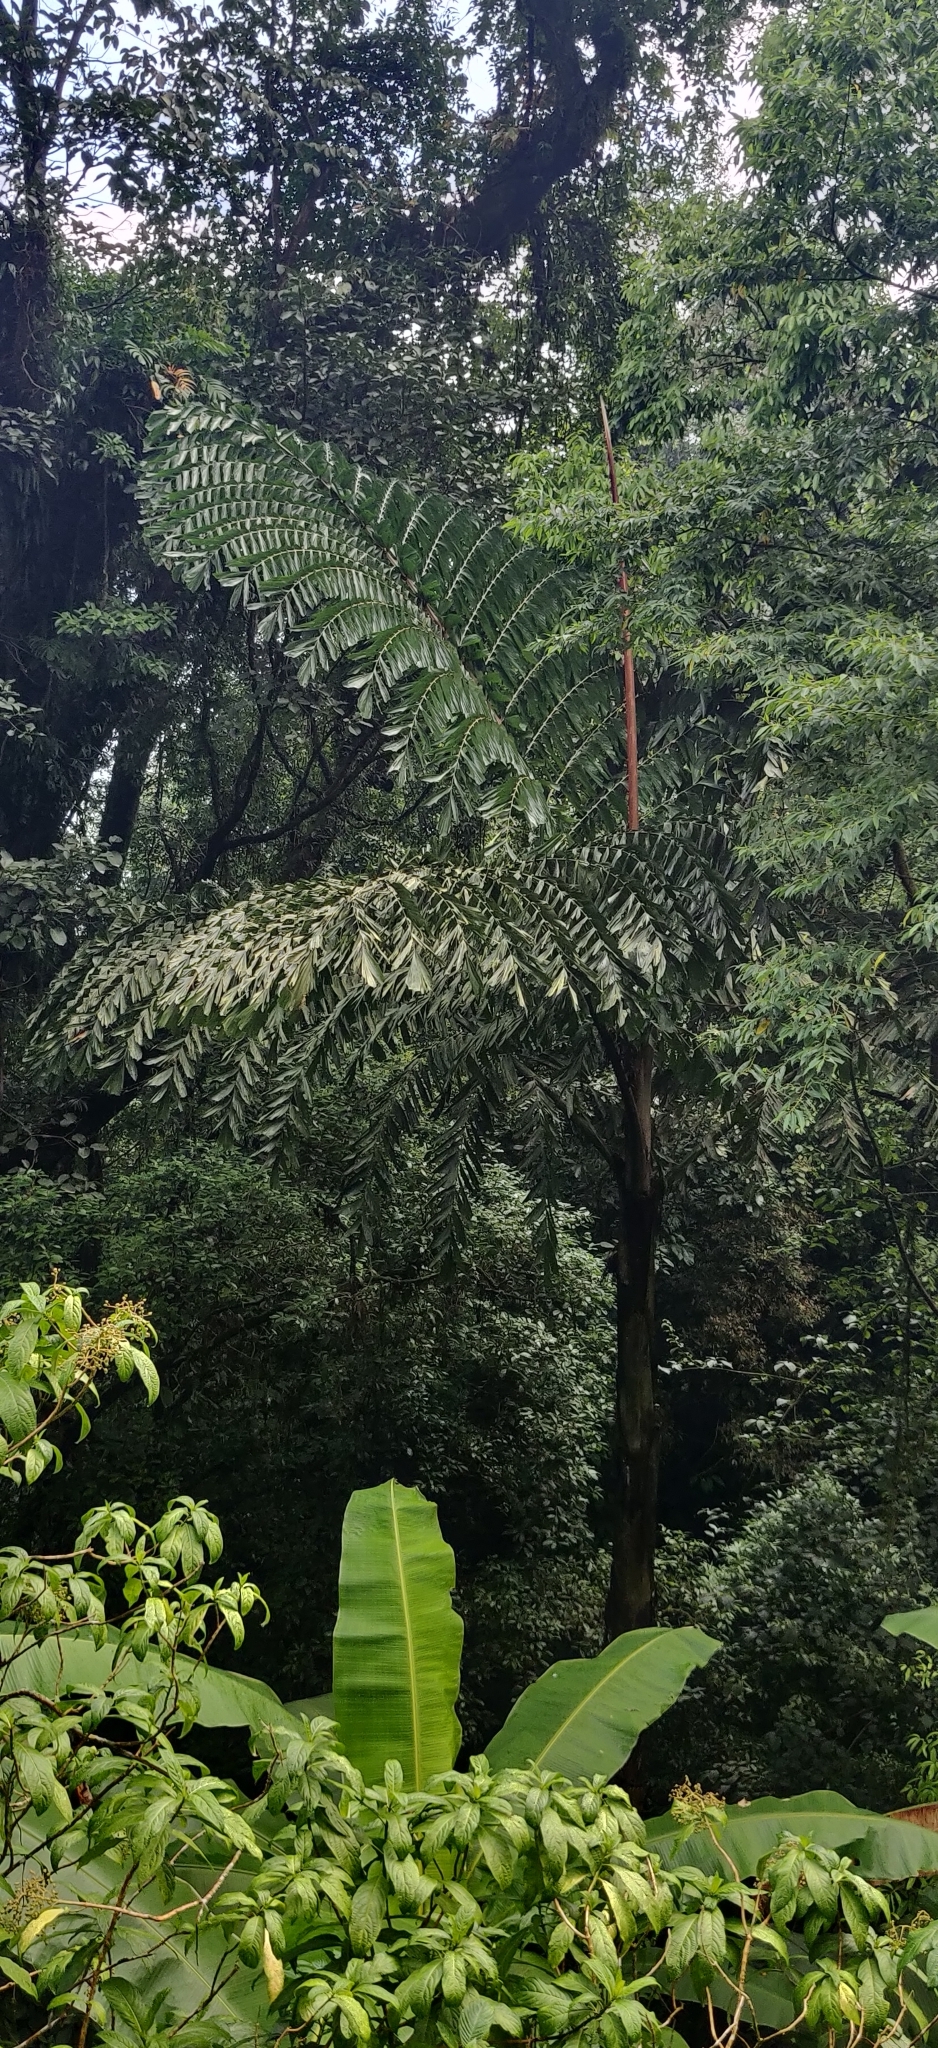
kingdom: Plantae
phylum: Tracheophyta
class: Liliopsida
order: Arecales
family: Arecaceae
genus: Caryota
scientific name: Caryota obtusa
